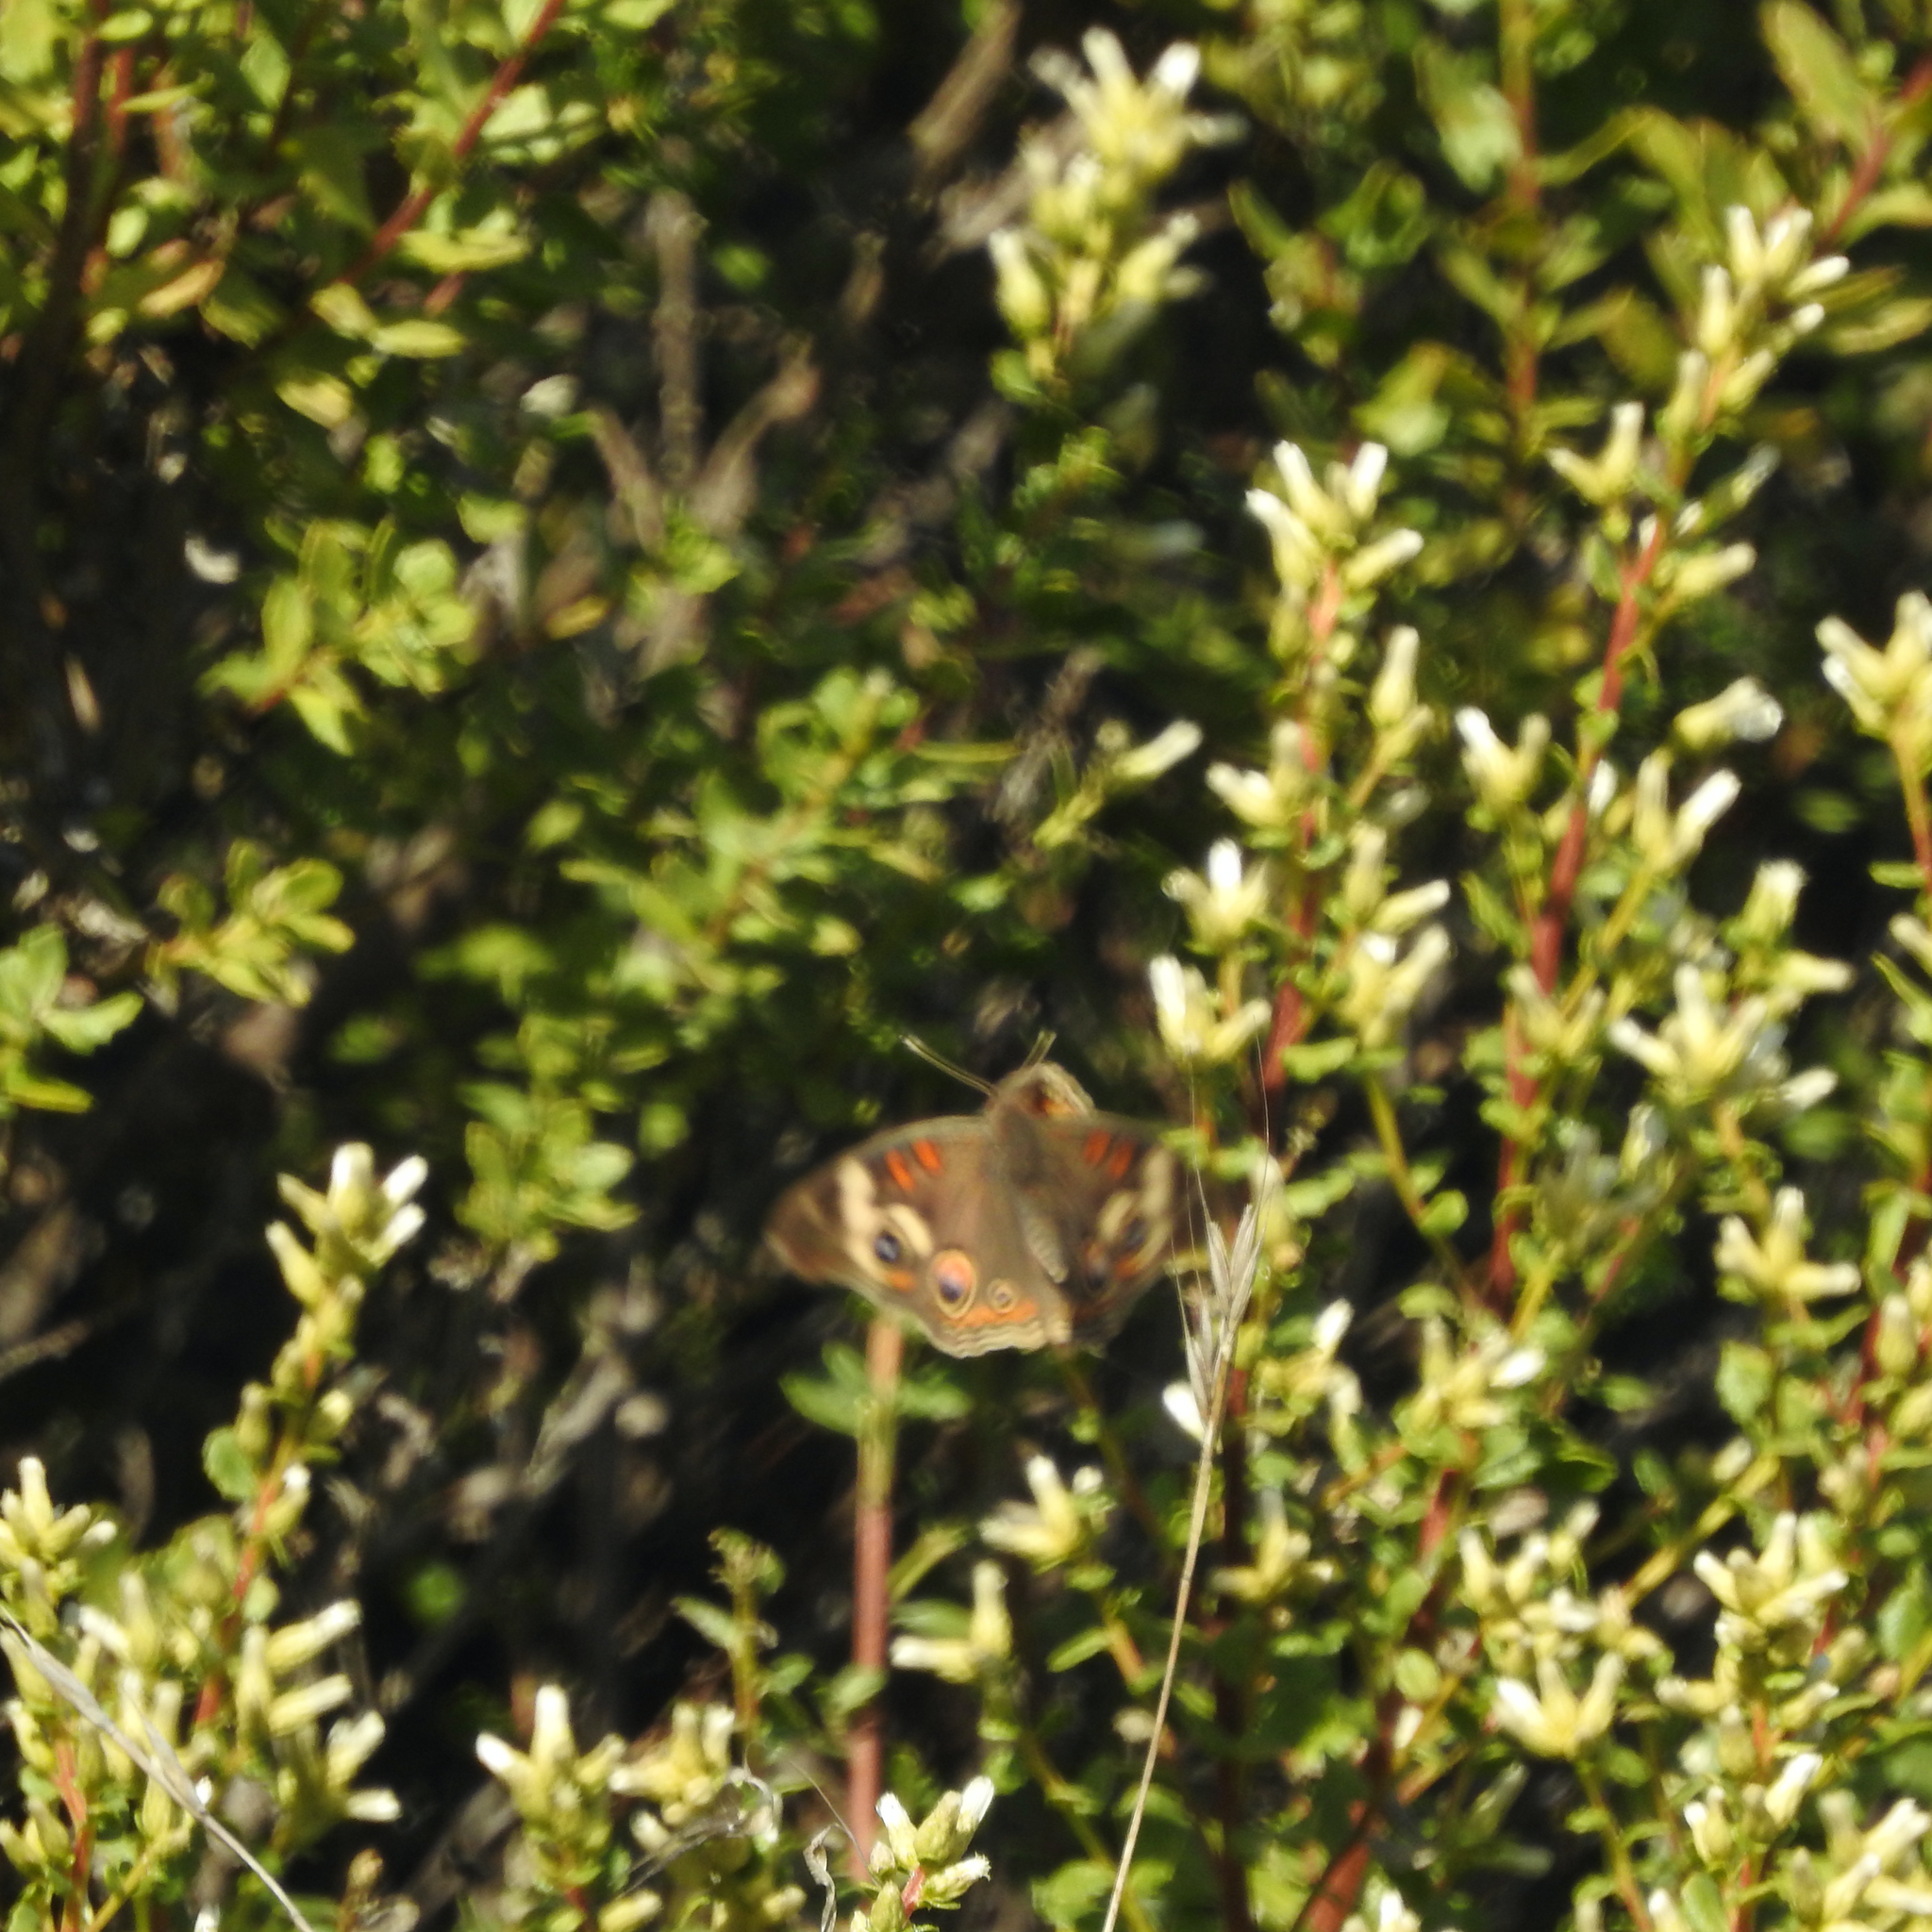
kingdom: Animalia
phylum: Arthropoda
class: Insecta
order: Lepidoptera
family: Nymphalidae
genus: Junonia
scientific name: Junonia grisea
